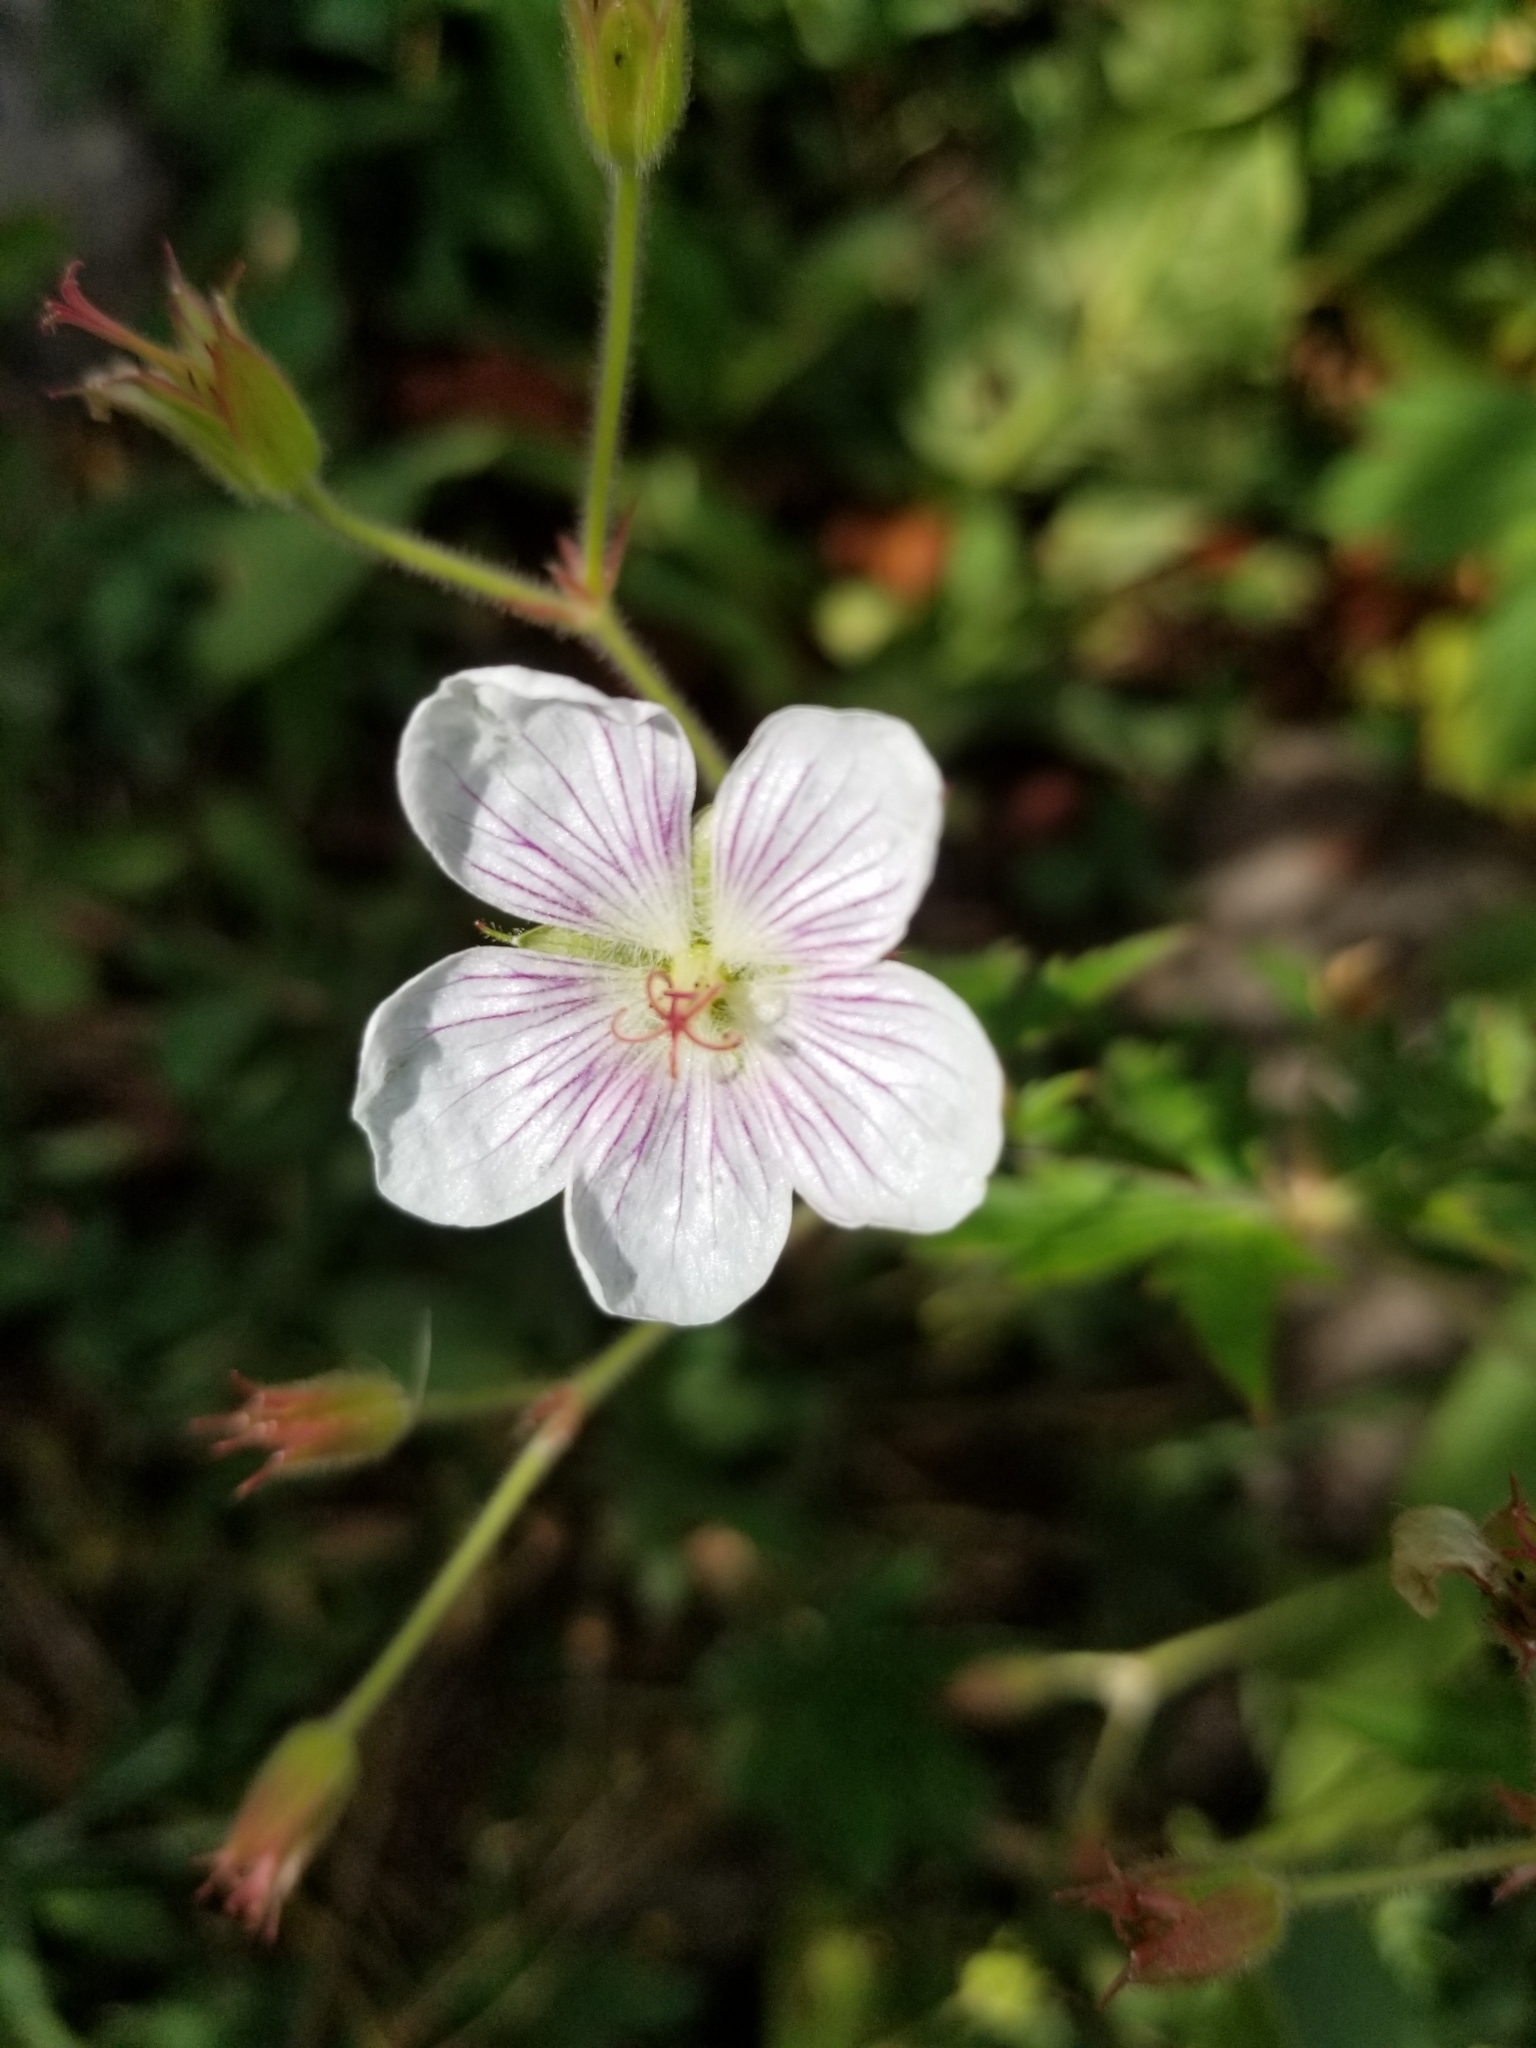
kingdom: Plantae
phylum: Tracheophyta
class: Magnoliopsida
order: Geraniales
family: Geraniaceae
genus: Geranium
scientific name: Geranium richardsonii
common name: Richardson's crane's-bill
